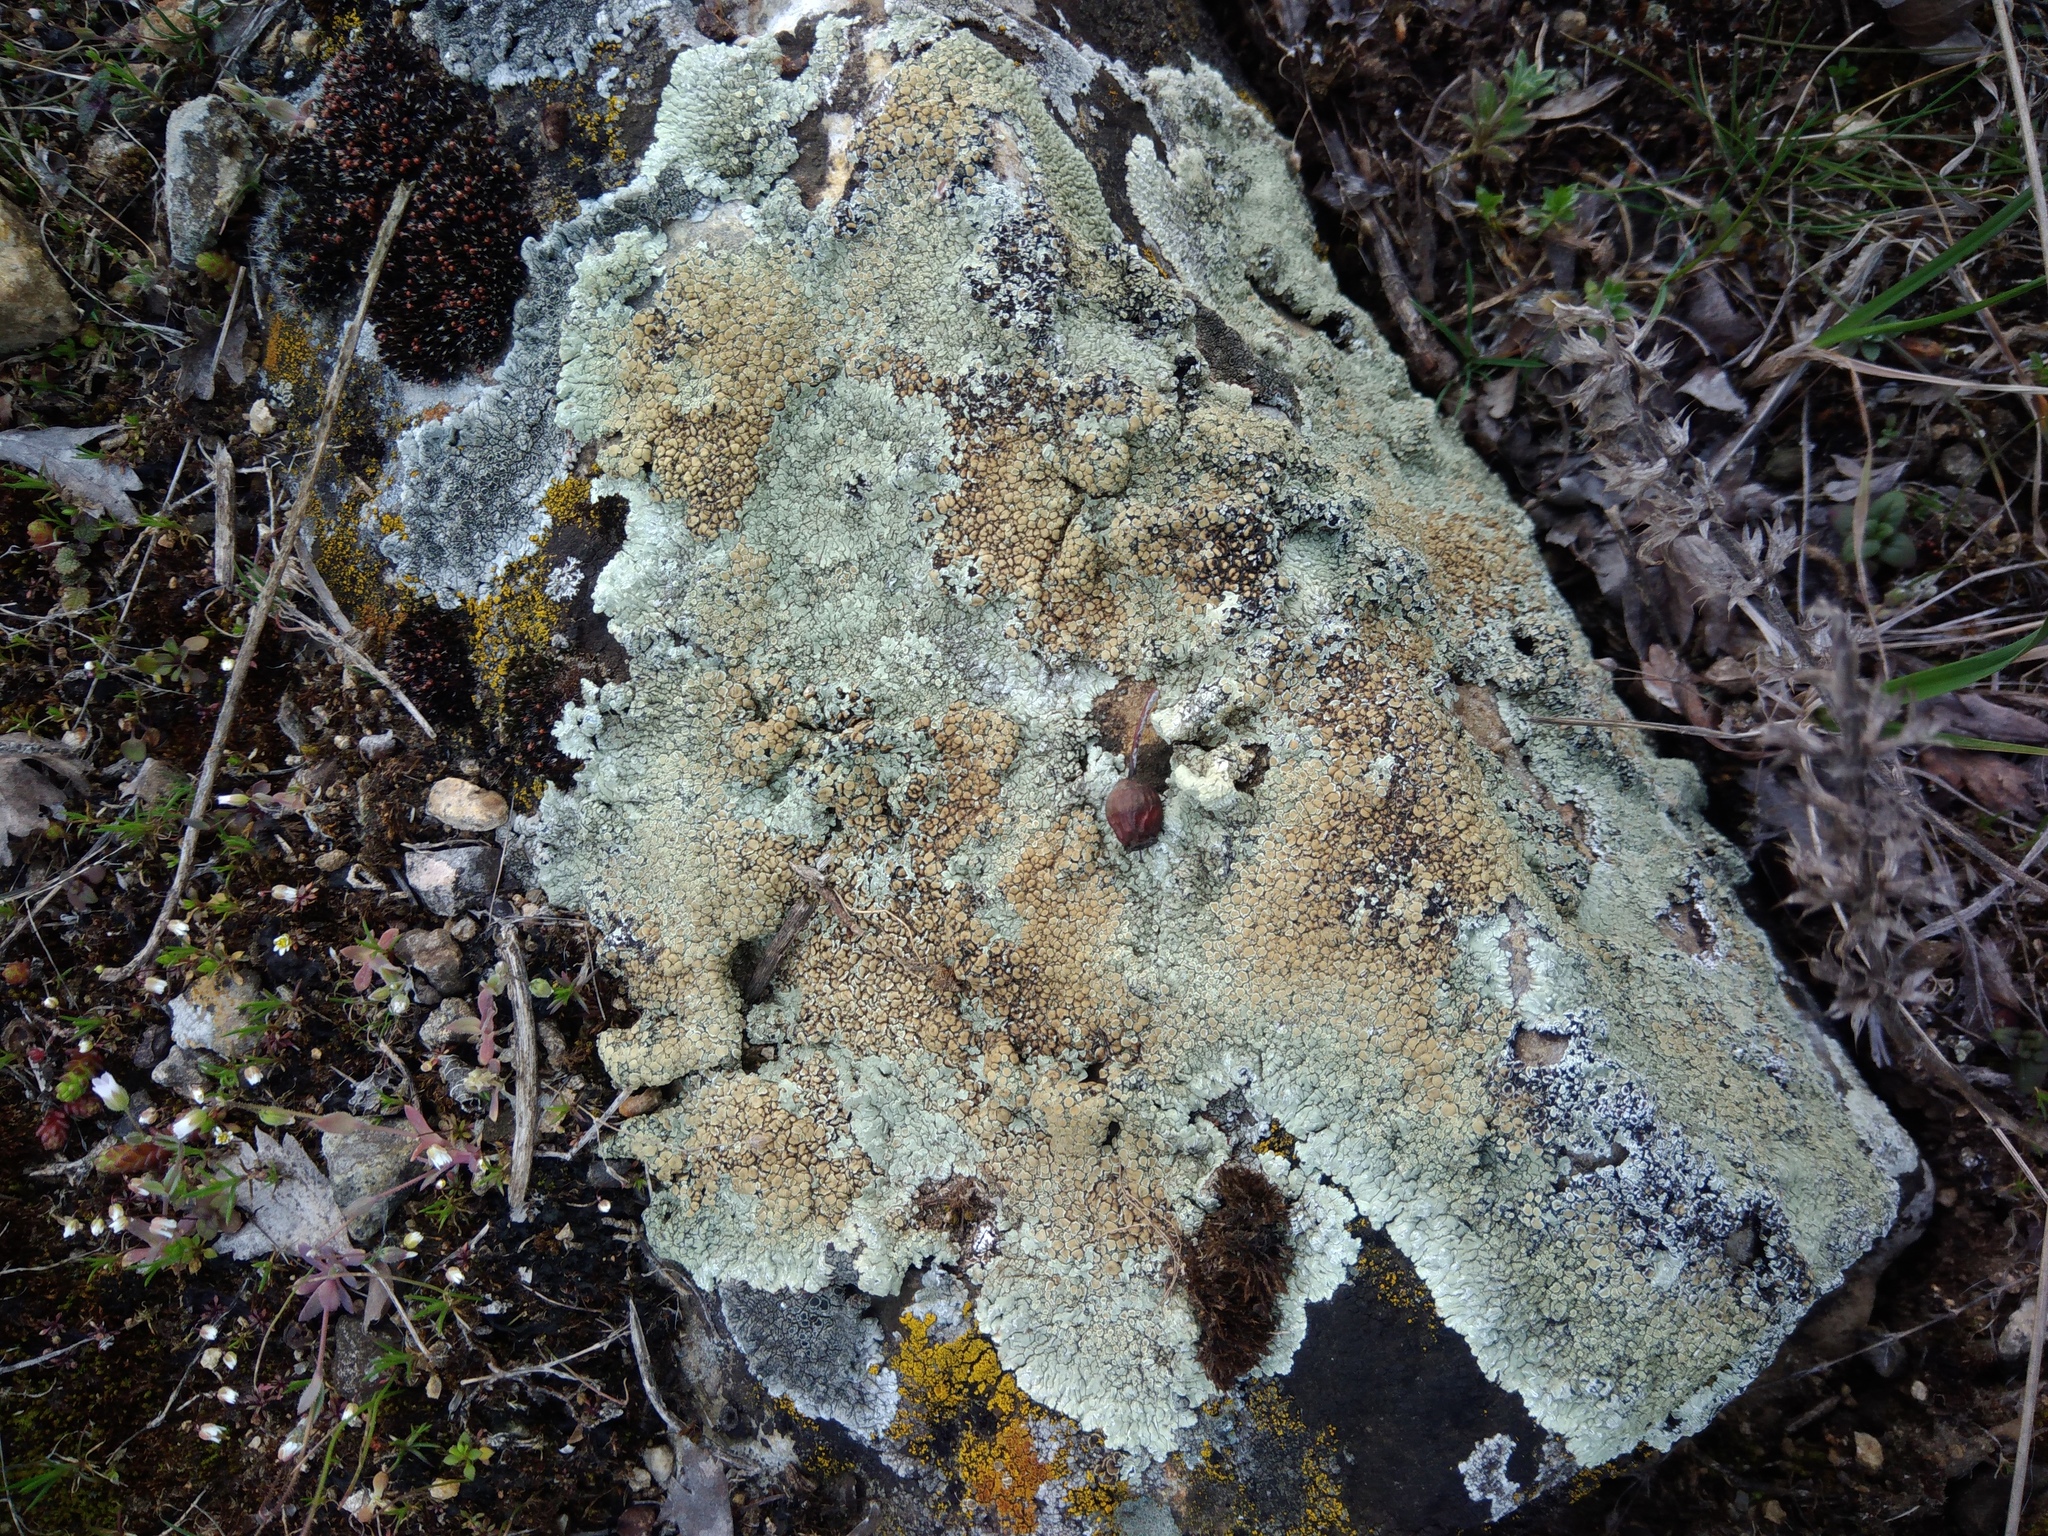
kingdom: Fungi
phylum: Ascomycota
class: Lecanoromycetes
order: Lecanorales
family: Lecanoraceae
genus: Protoparmeliopsis
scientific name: Protoparmeliopsis muralis
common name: Stonewall rim lichen
